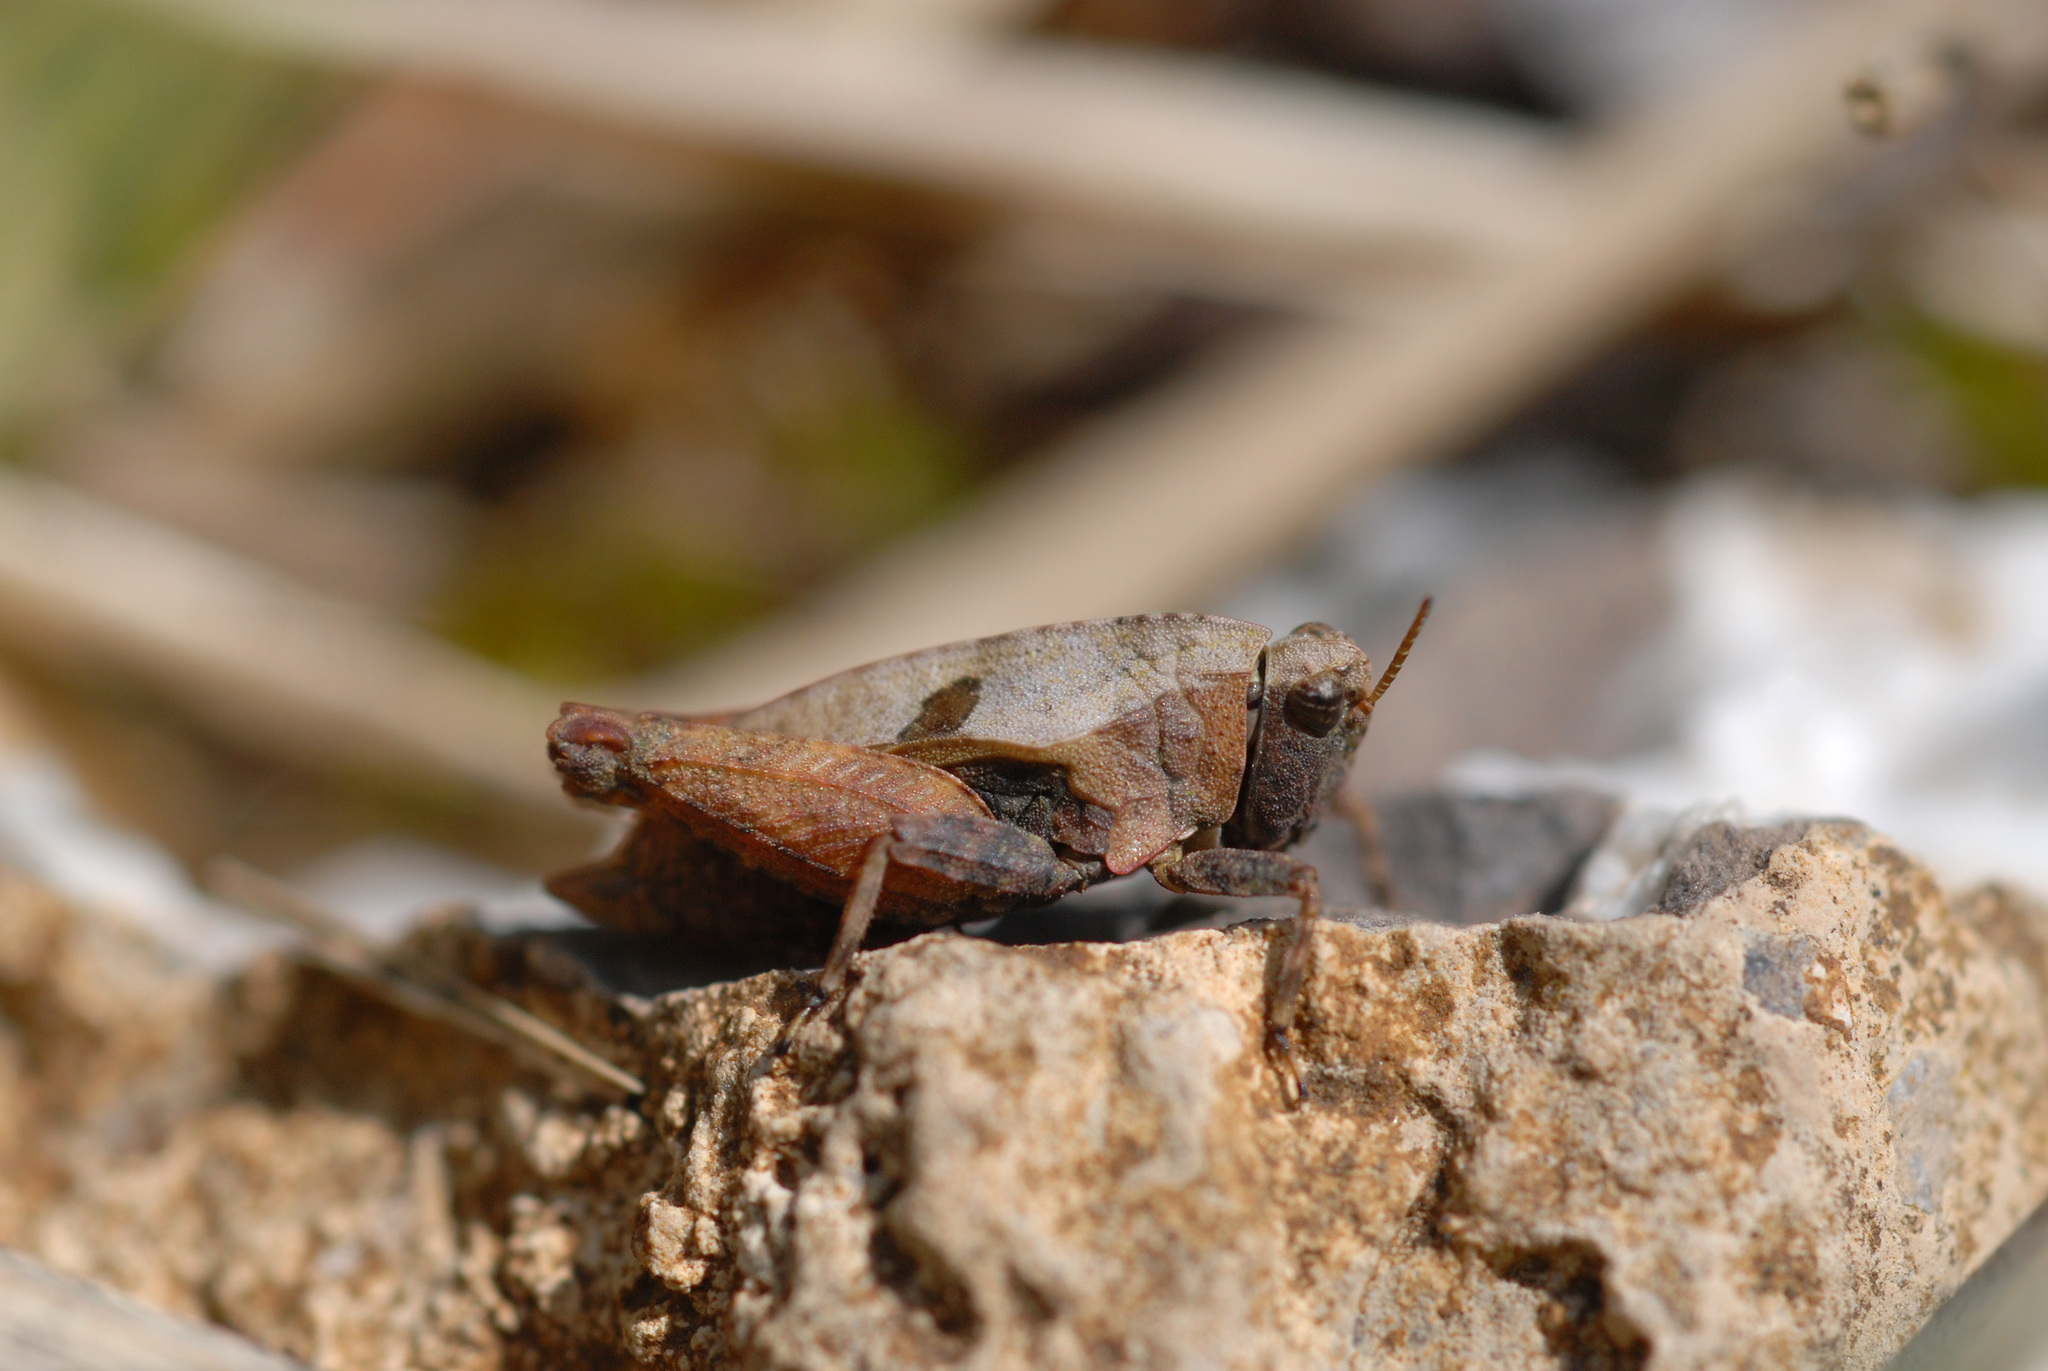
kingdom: Animalia
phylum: Arthropoda
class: Insecta
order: Orthoptera
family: Tetrigidae
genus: Tetrix
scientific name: Tetrix bipunctata
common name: Two-spotted groundhopper
